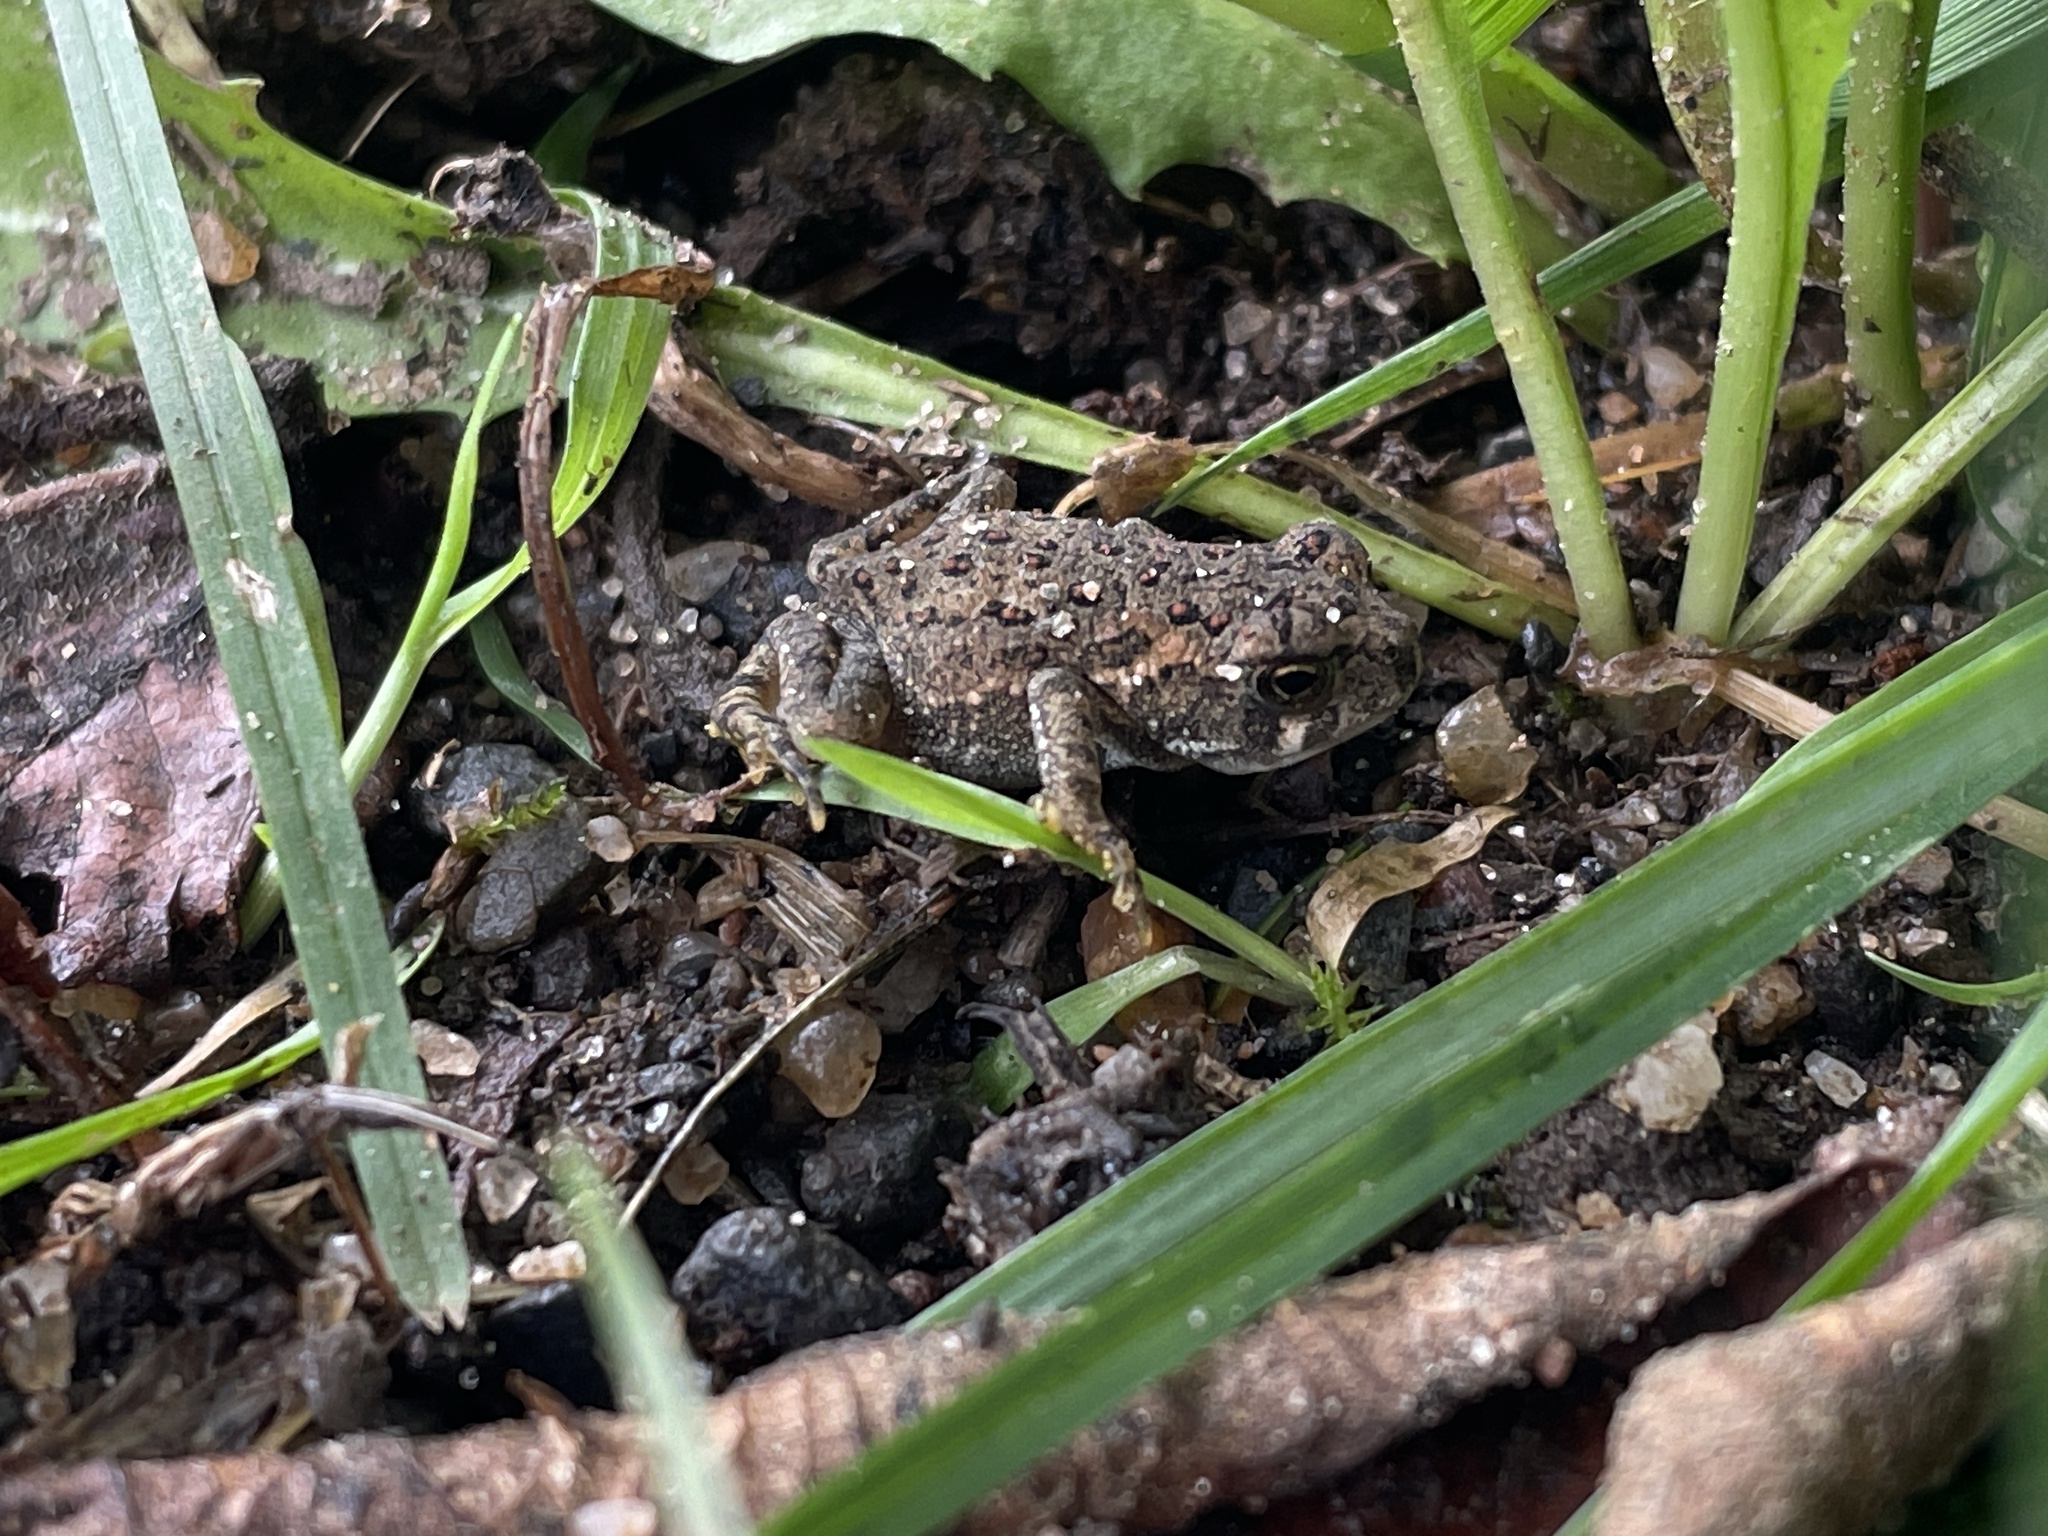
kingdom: Animalia
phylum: Chordata
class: Amphibia
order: Anura
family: Bufonidae
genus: Anaxyrus
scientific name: Anaxyrus americanus
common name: American toad
